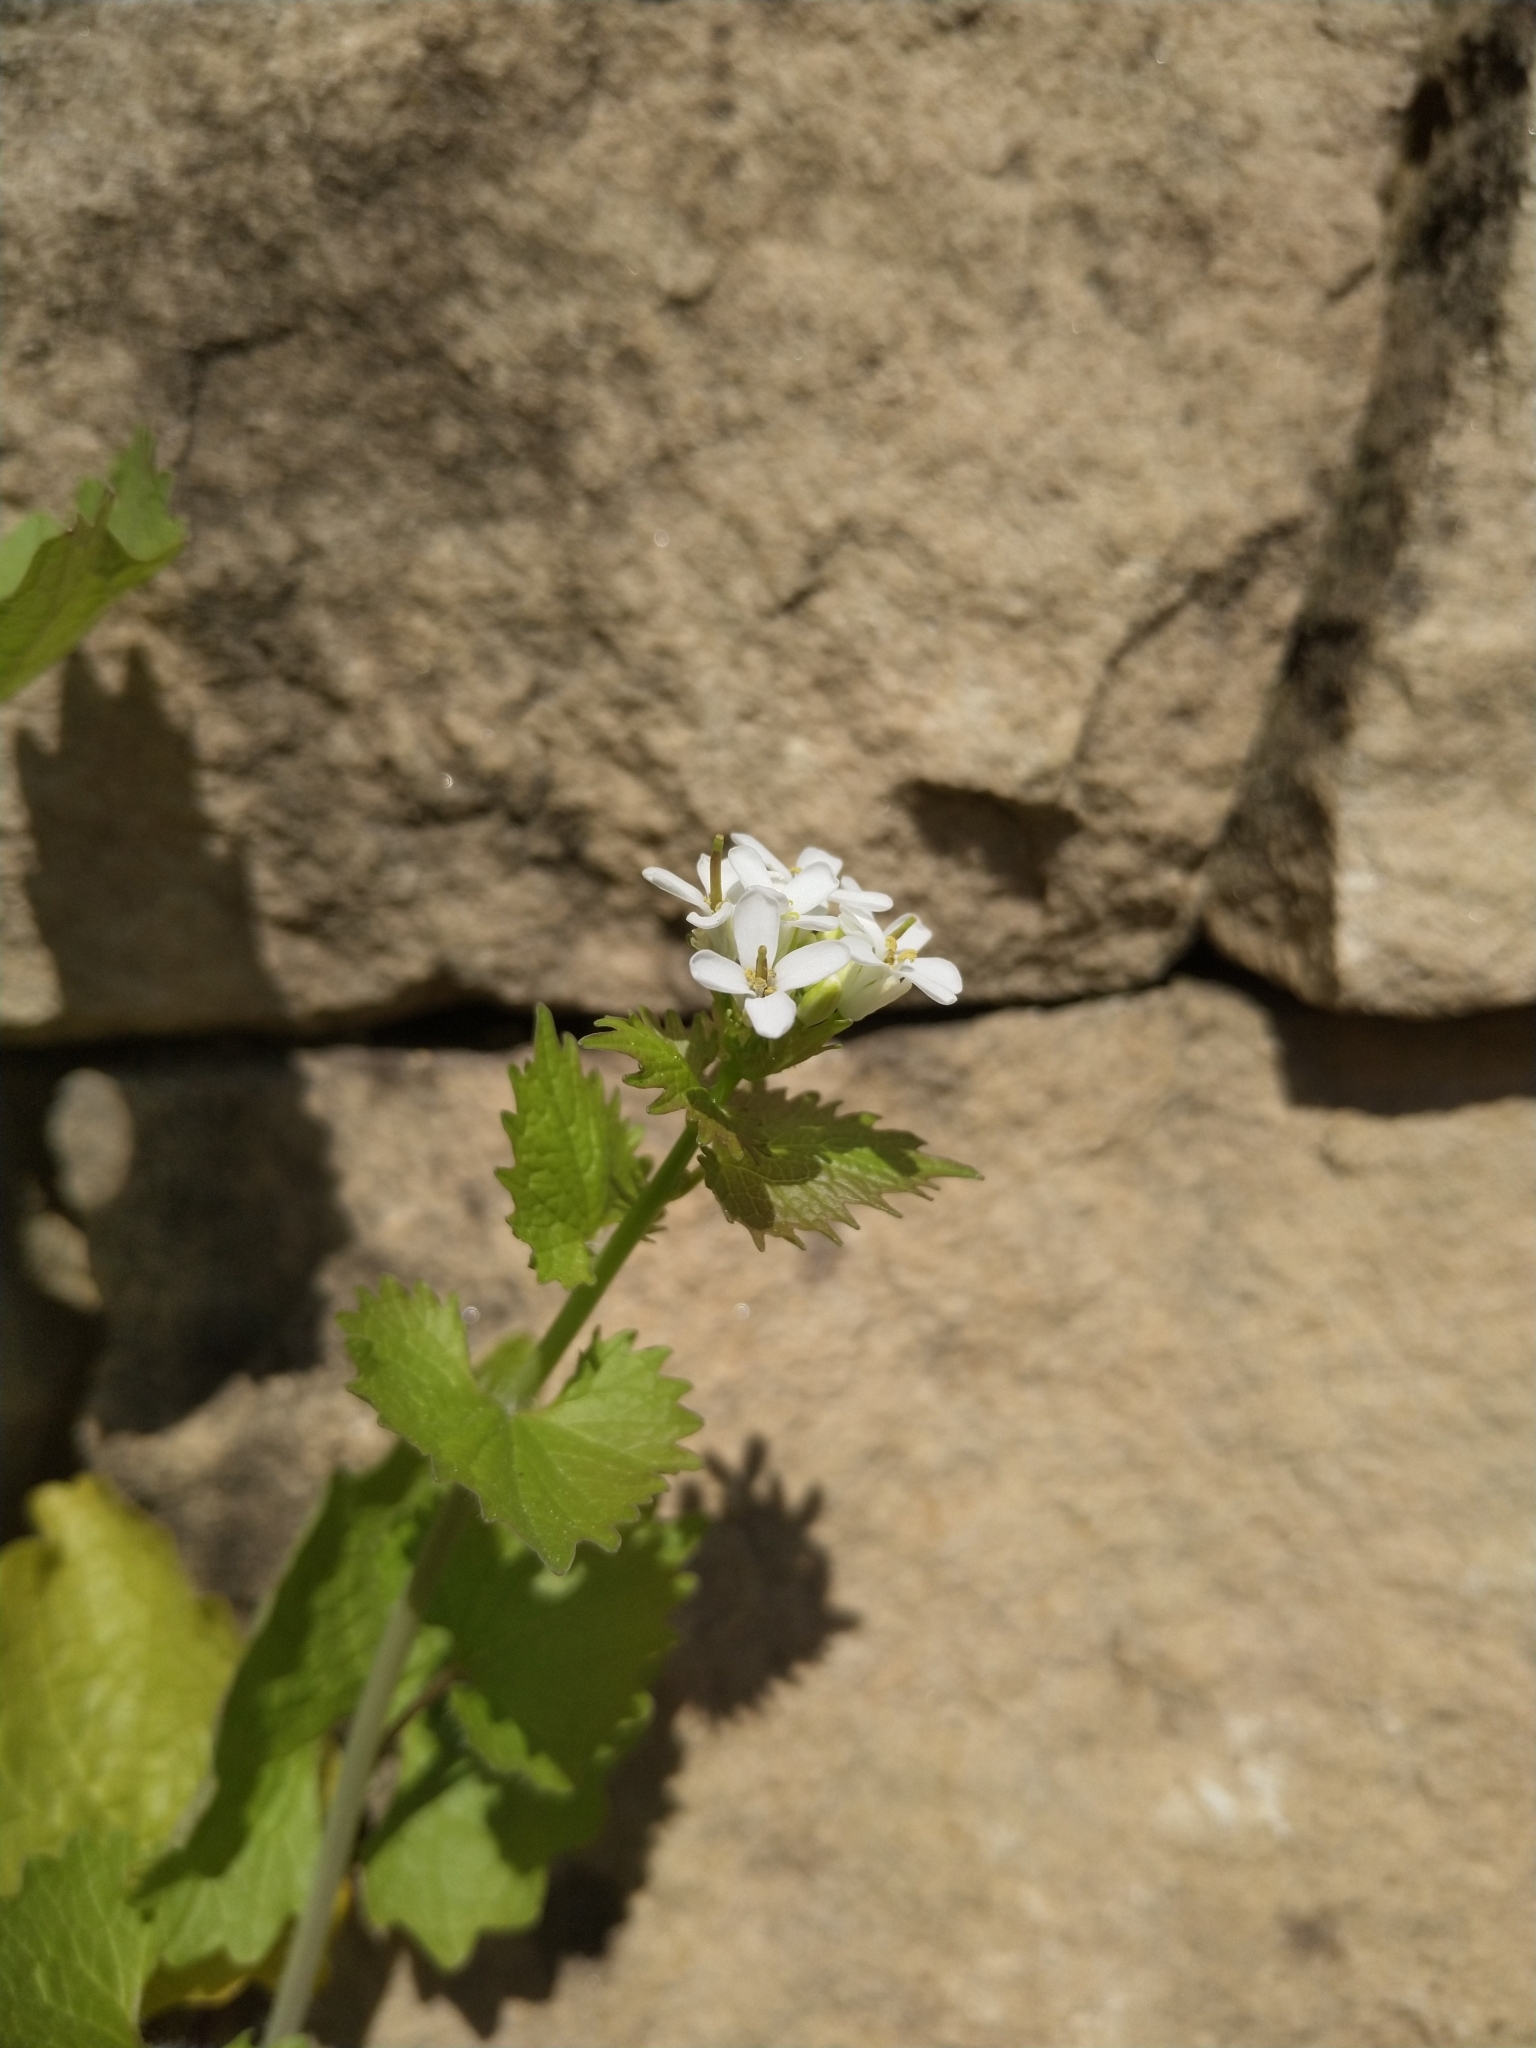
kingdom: Plantae
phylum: Tracheophyta
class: Magnoliopsida
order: Brassicales
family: Brassicaceae
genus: Alliaria
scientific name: Alliaria petiolata
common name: Garlic mustard
